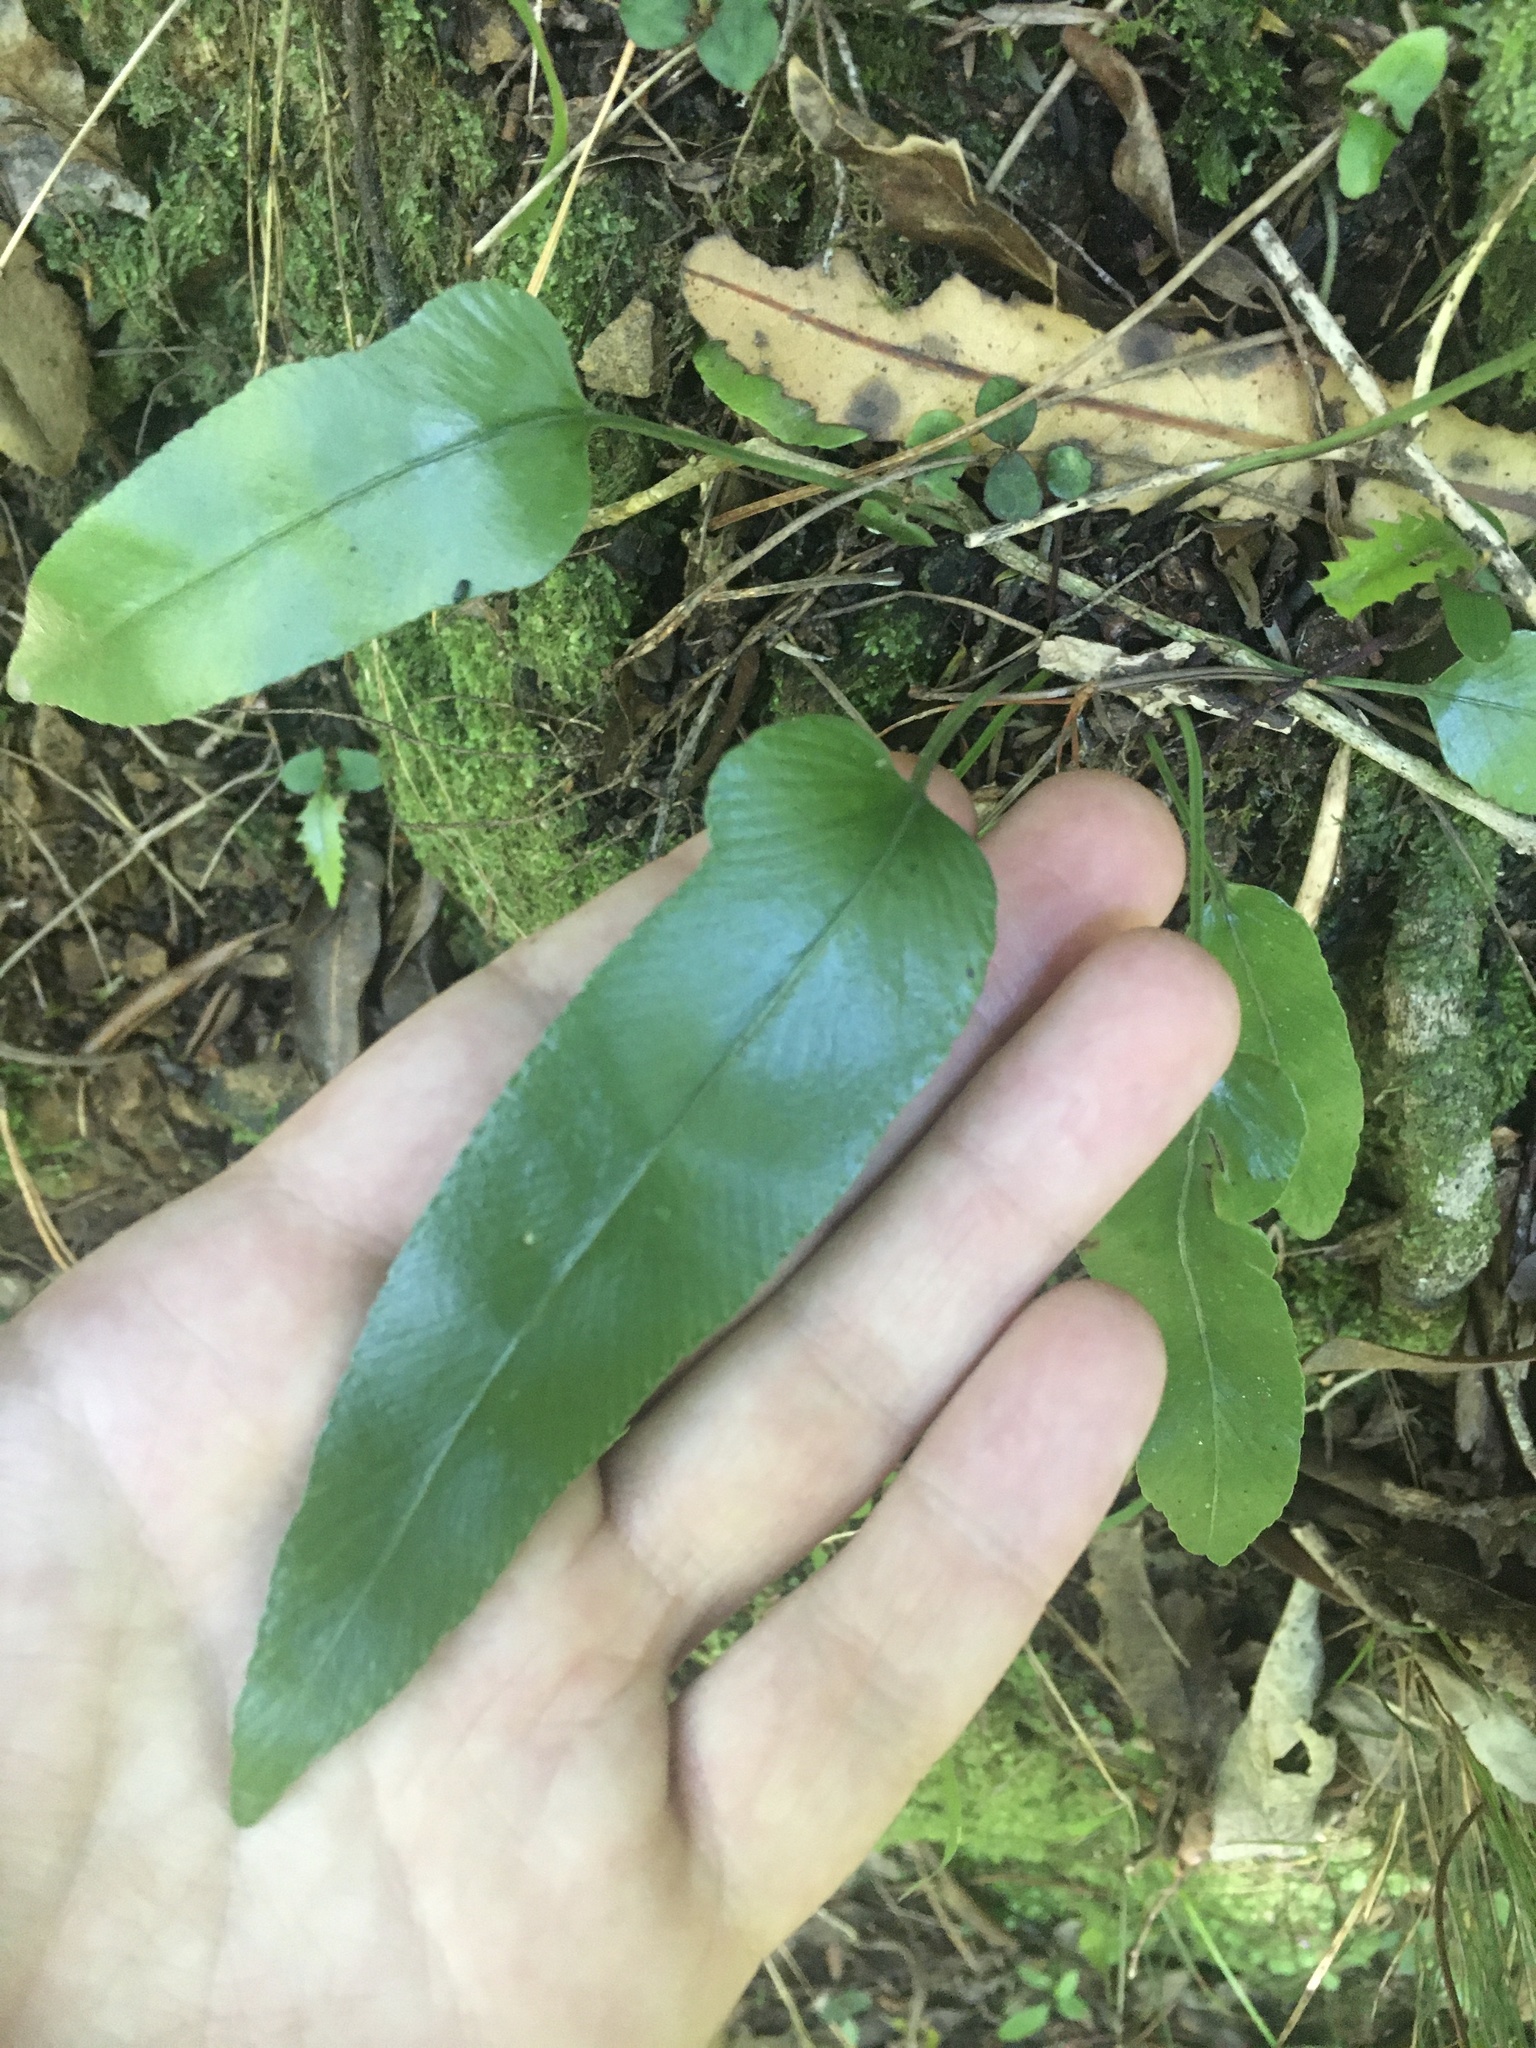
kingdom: Plantae
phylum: Tracheophyta
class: Polypodiopsida
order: Polypodiales
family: Aspleniaceae
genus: Asplenium
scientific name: Asplenium oblongifolium
